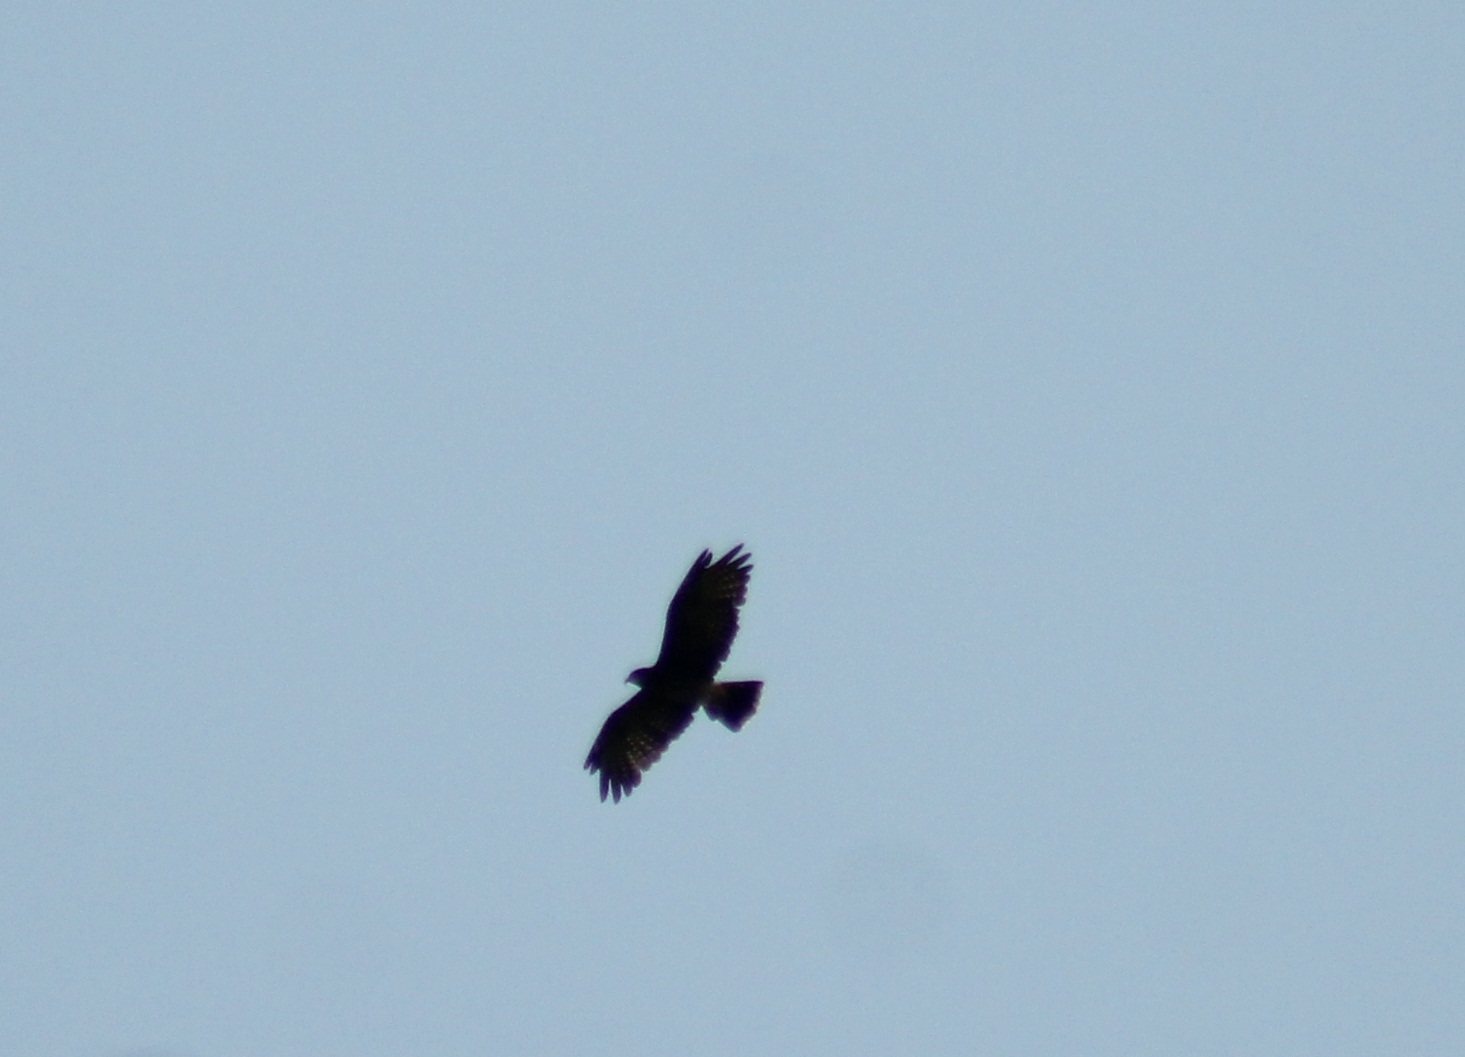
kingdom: Animalia
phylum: Chordata
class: Aves
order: Accipitriformes
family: Accipitridae
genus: Rostrhamus
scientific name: Rostrhamus sociabilis
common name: Snail kite
